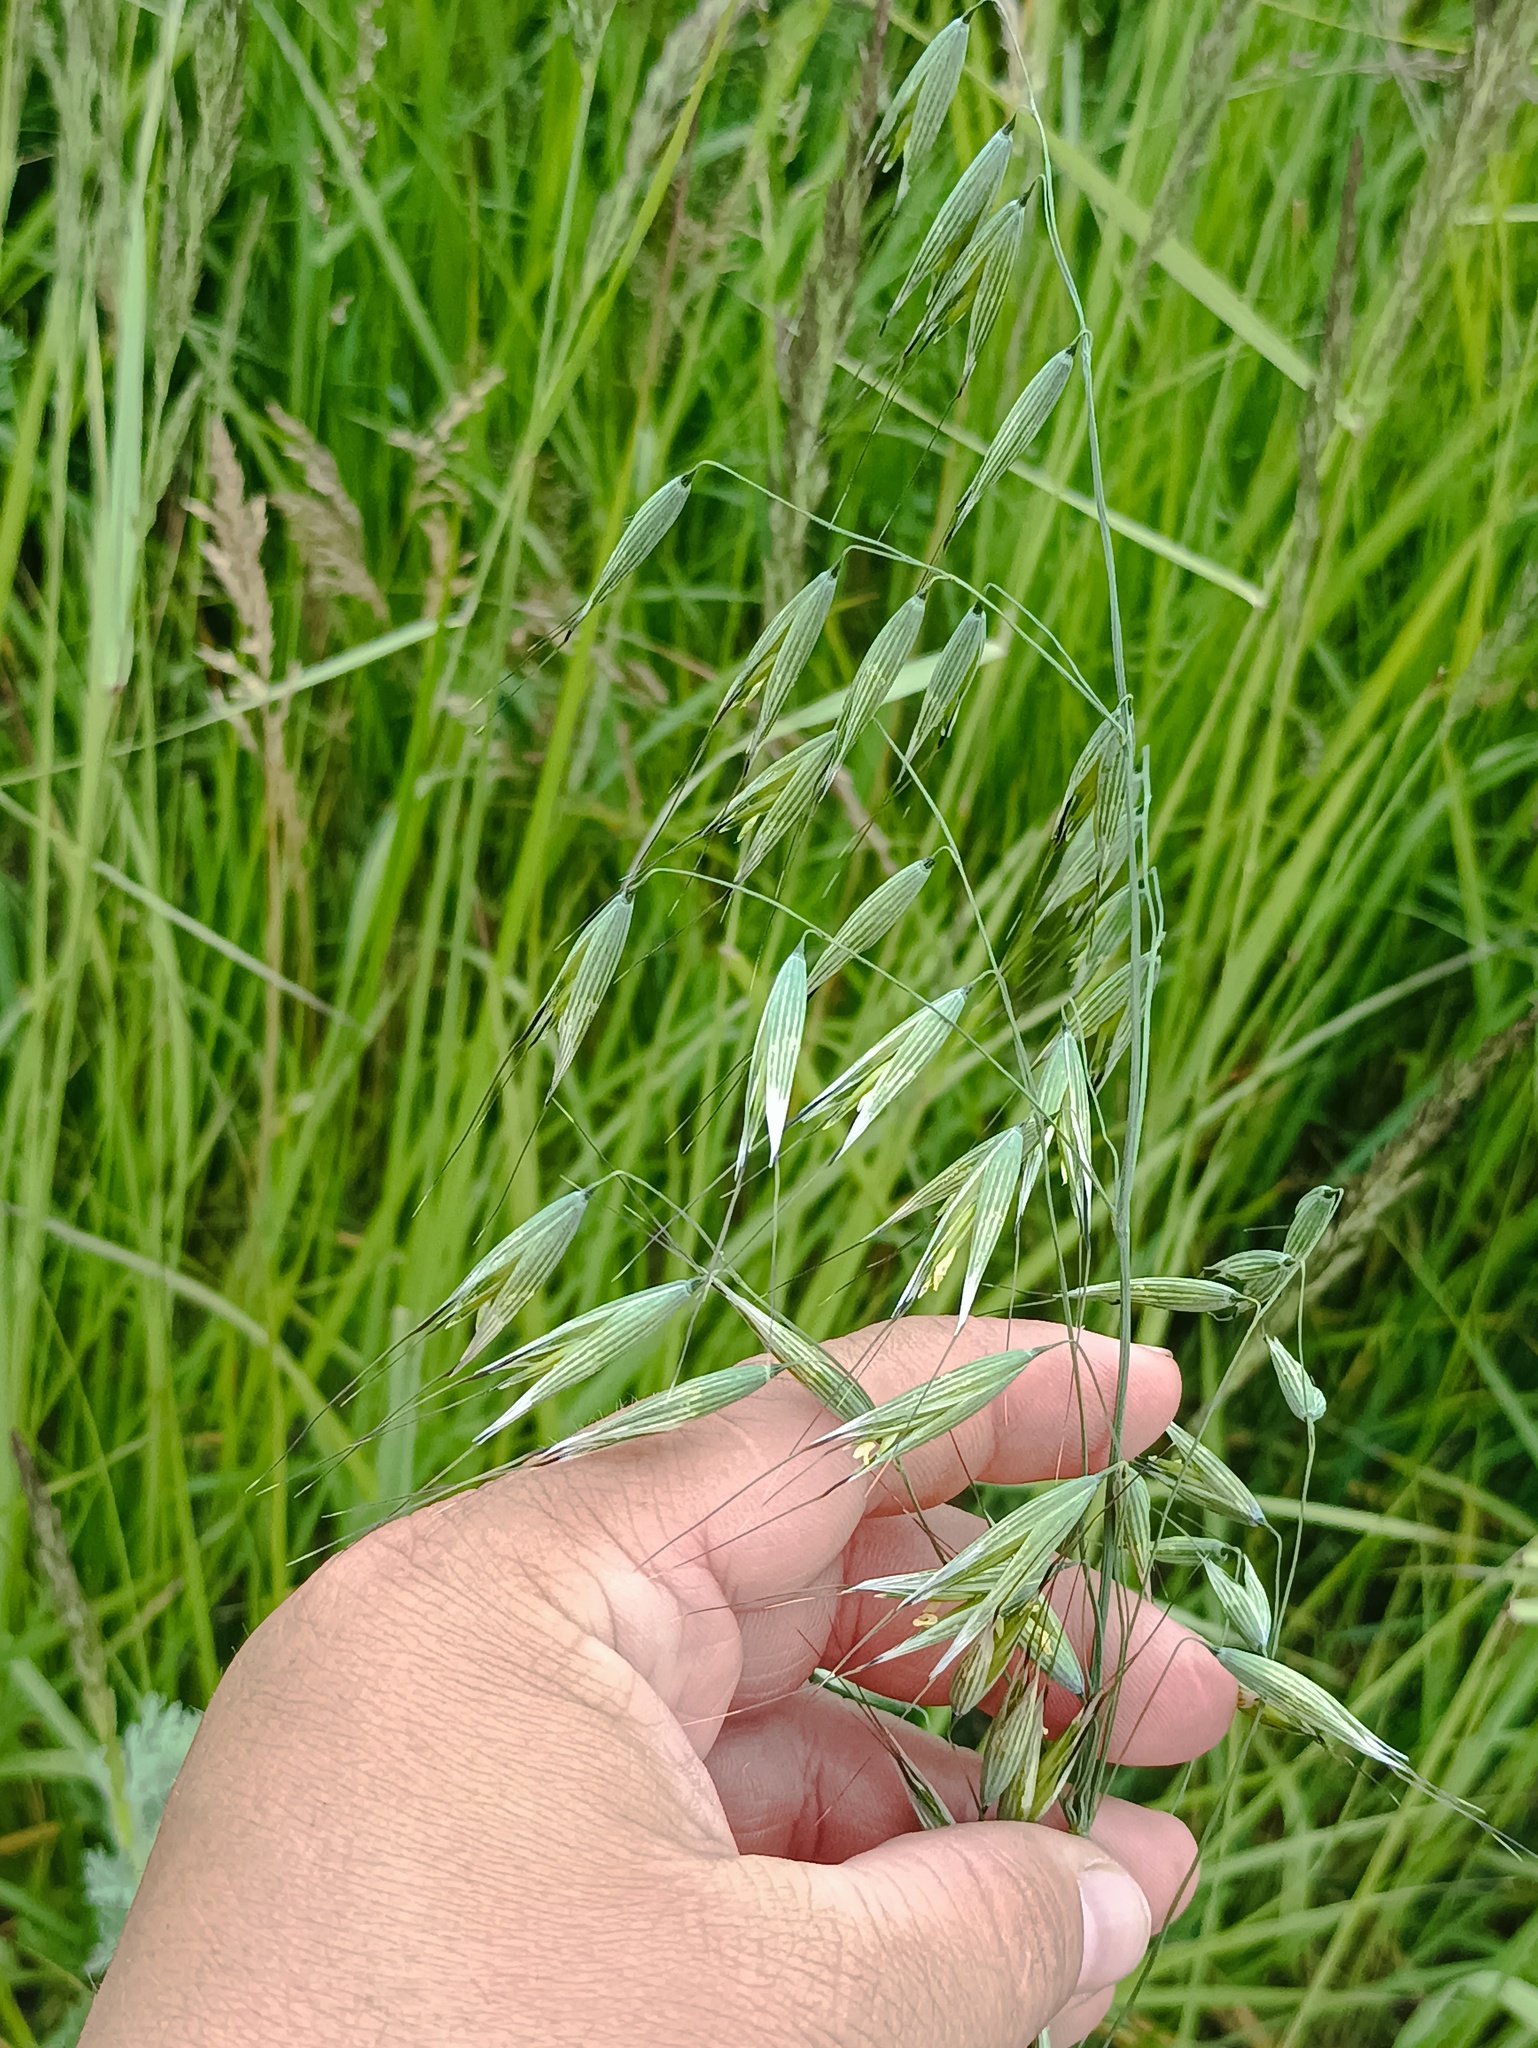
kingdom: Plantae
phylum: Tracheophyta
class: Liliopsida
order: Poales
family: Poaceae
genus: Avena
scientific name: Avena fatua
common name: Wild oat
